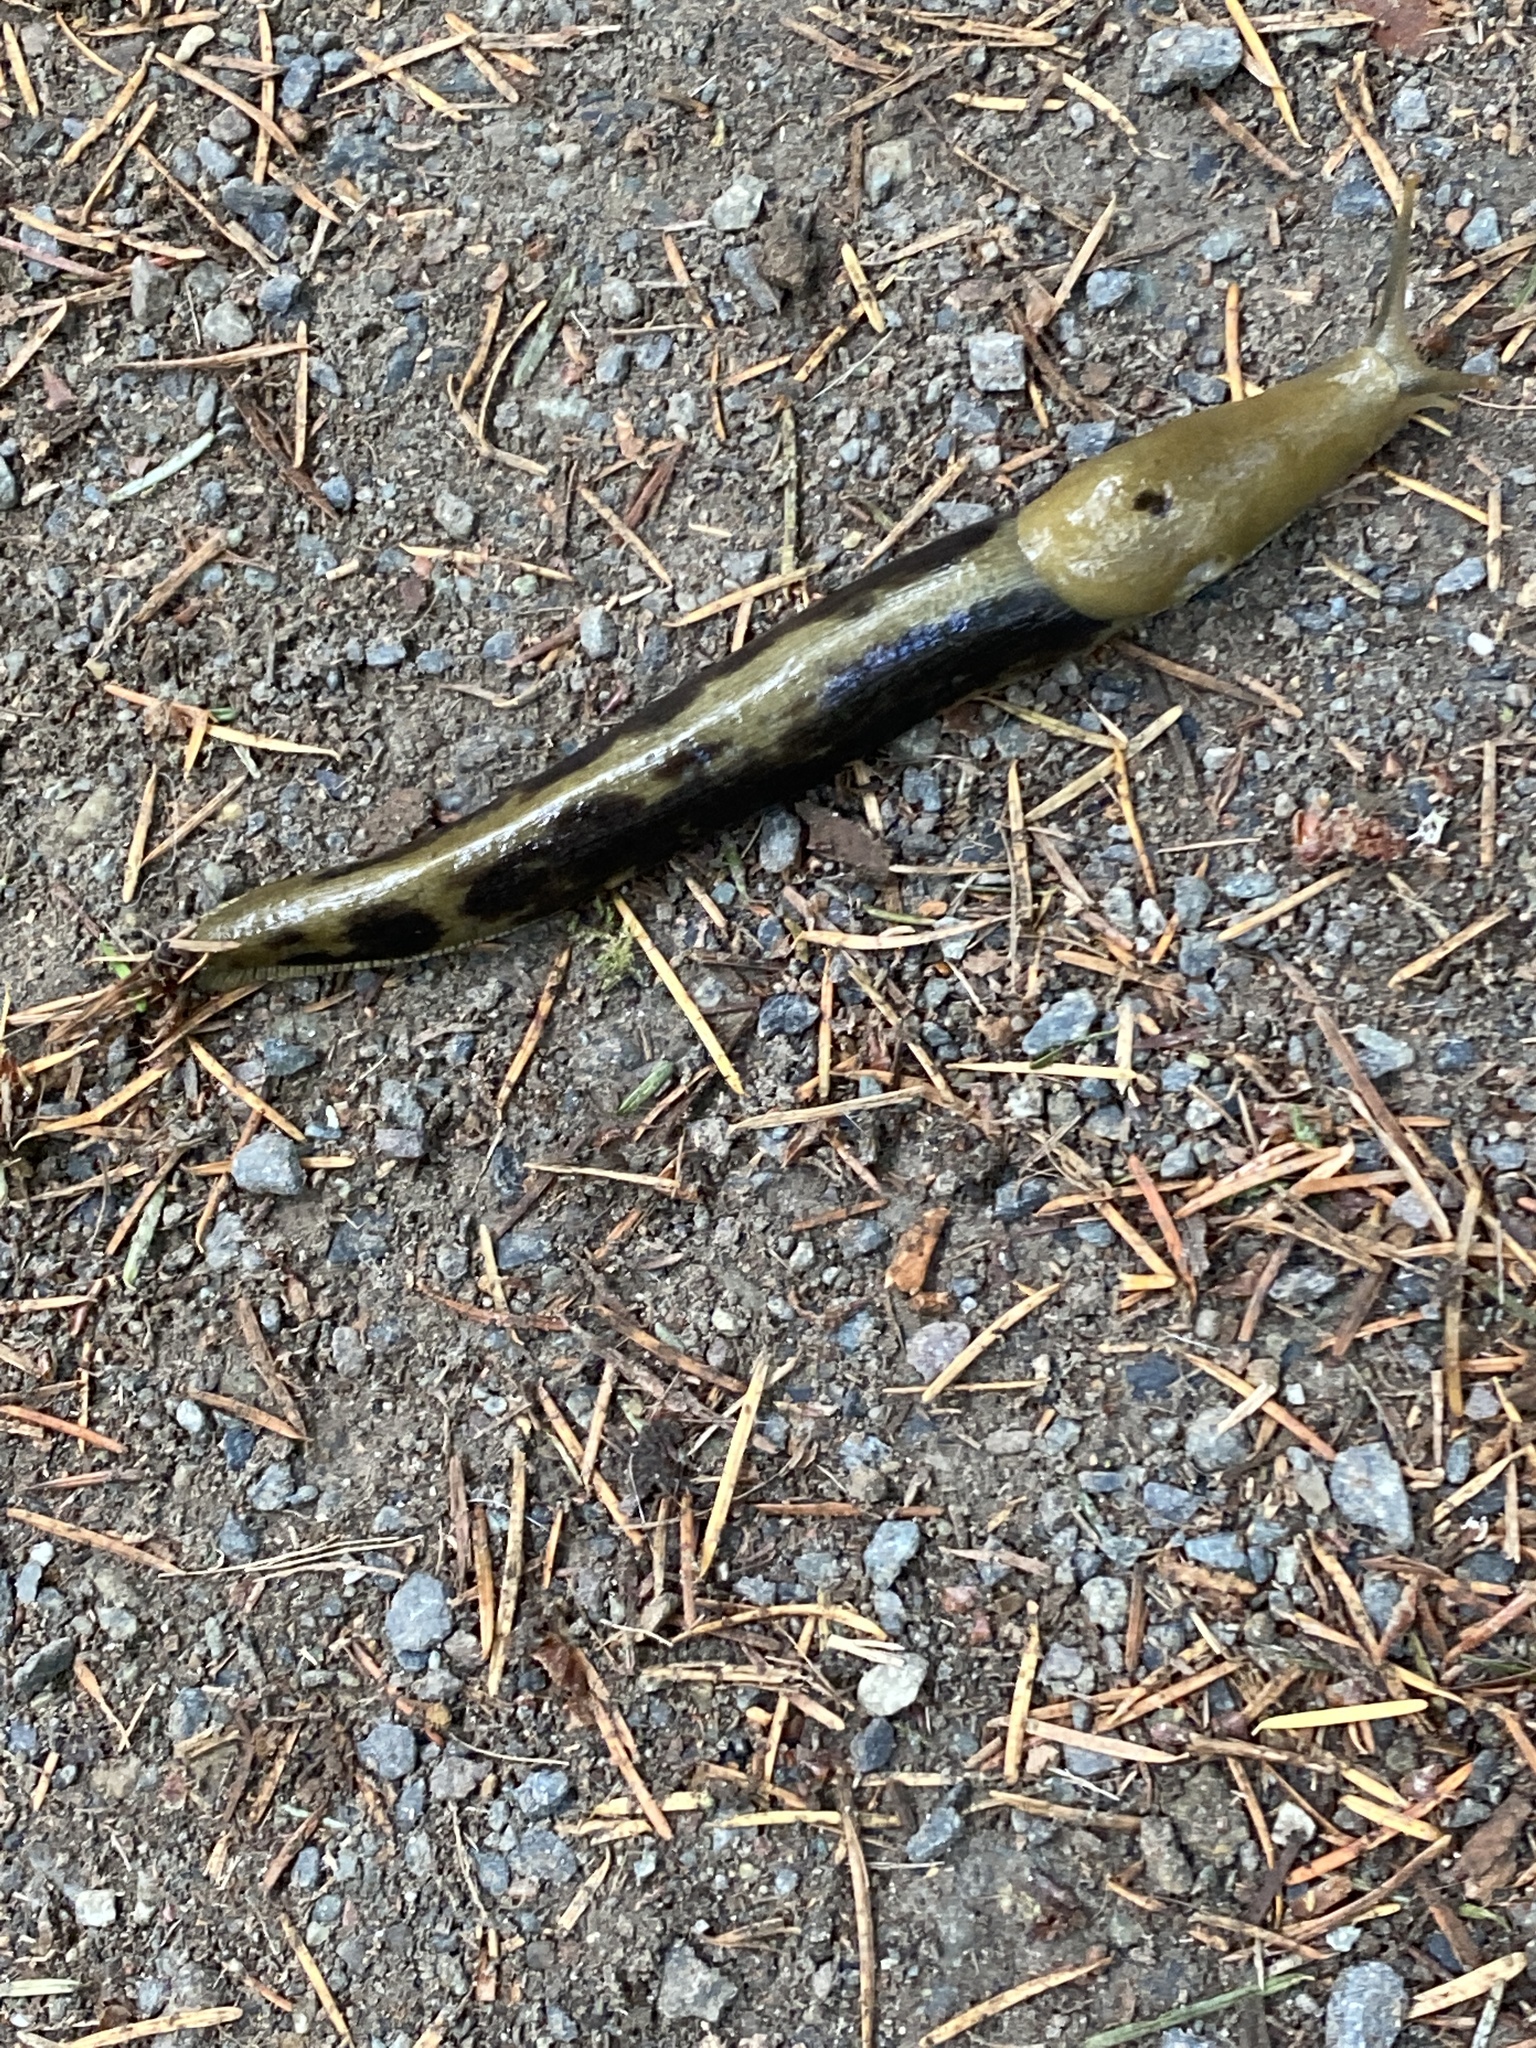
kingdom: Animalia
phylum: Mollusca
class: Gastropoda
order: Stylommatophora
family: Ariolimacidae
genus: Ariolimax
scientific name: Ariolimax columbianus
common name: Pacific banana slug
